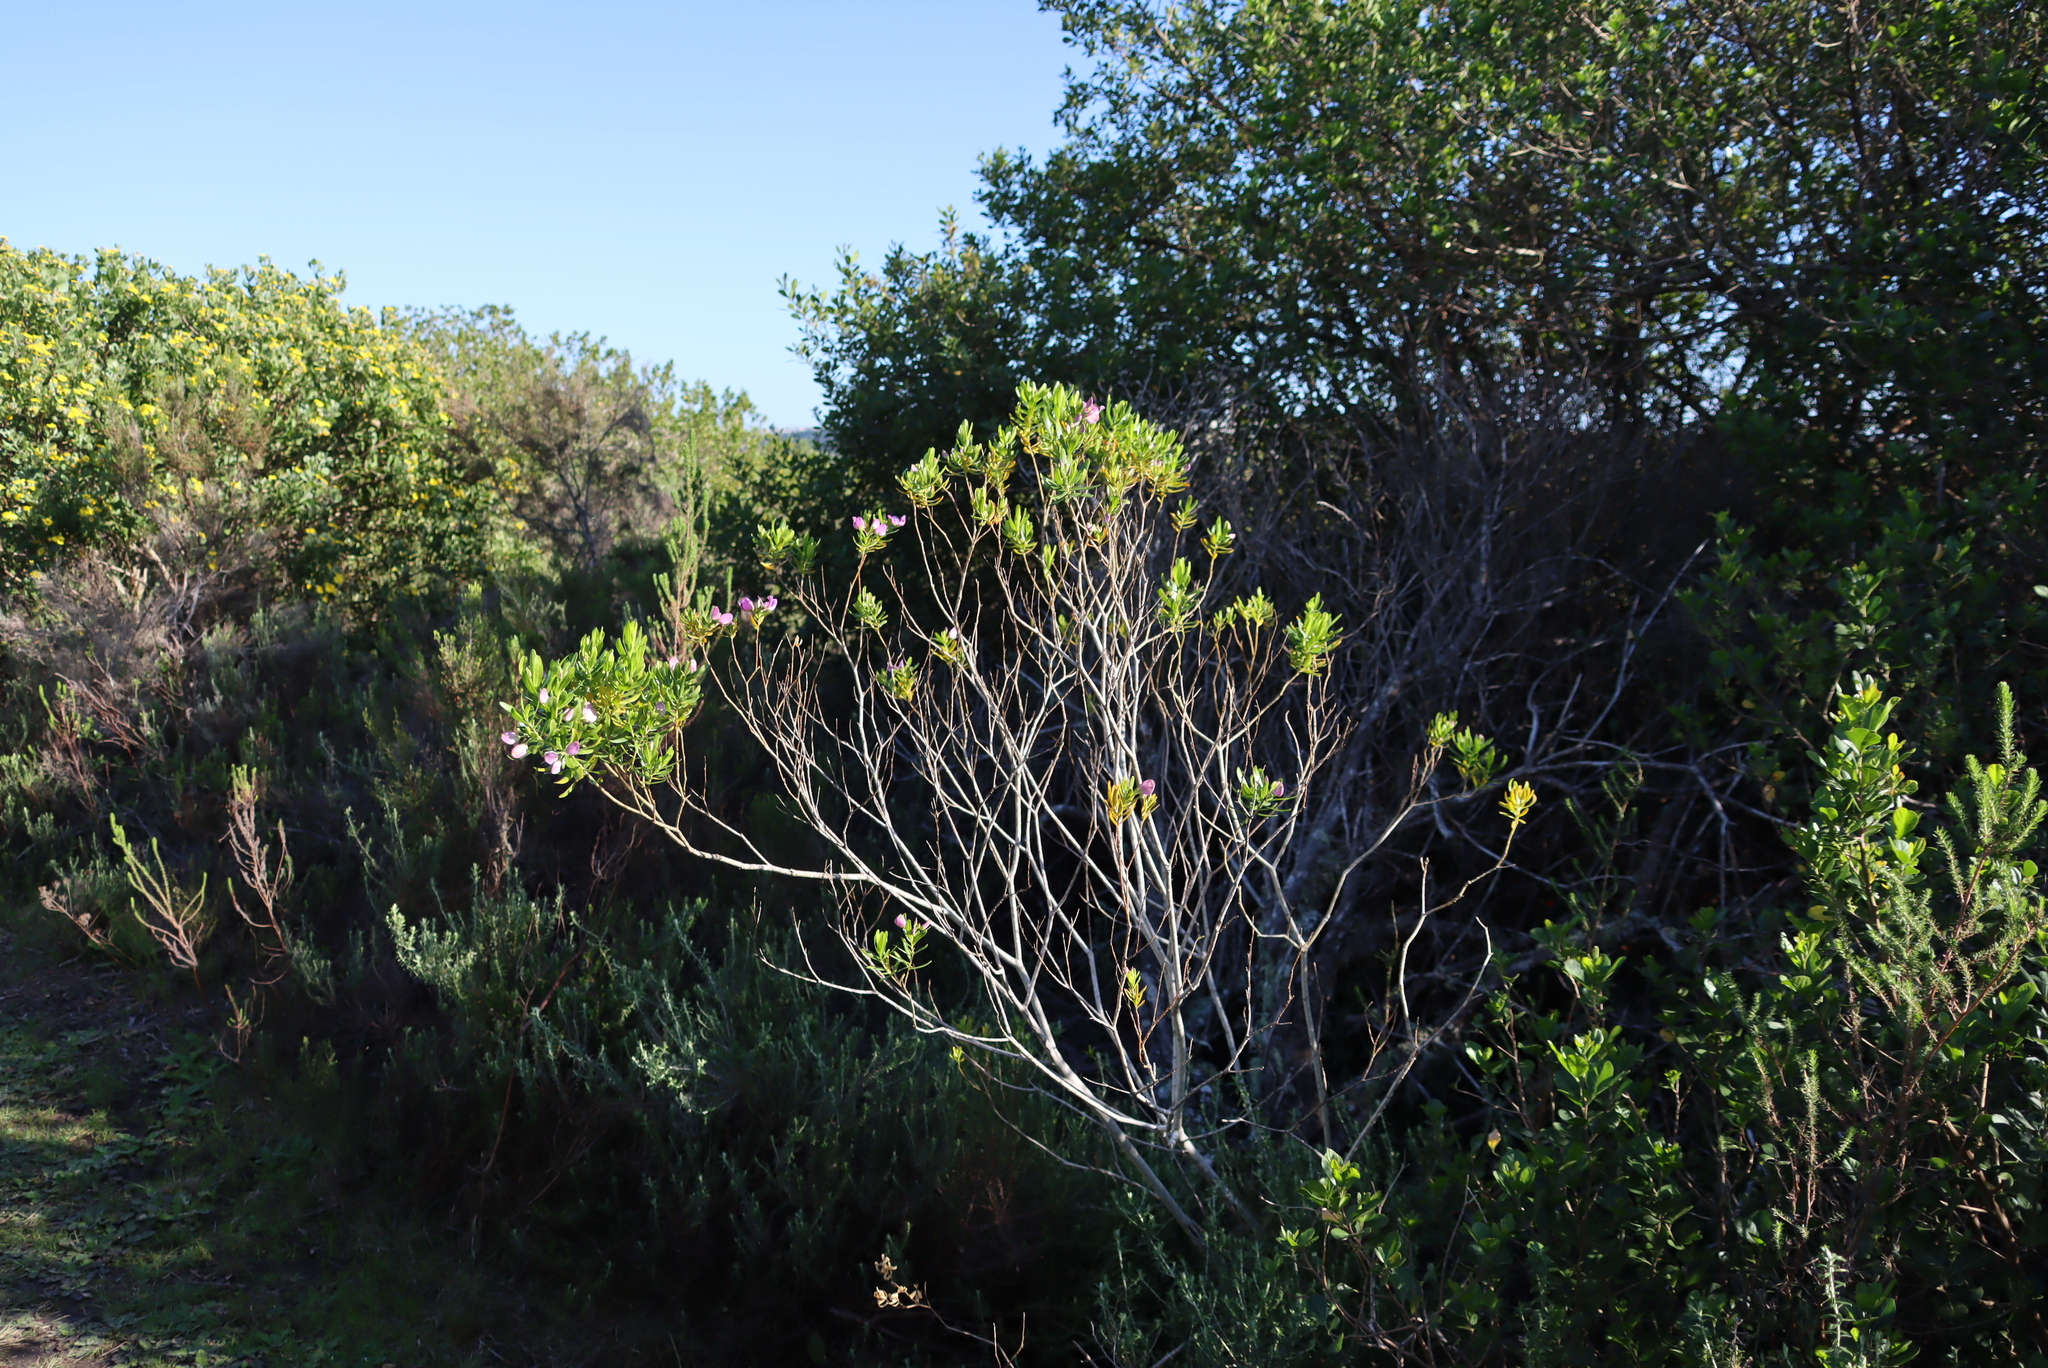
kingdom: Plantae
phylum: Tracheophyta
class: Magnoliopsida
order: Fabales
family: Polygalaceae
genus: Polygala
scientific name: Polygala myrtifolia
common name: Myrtle-leaf milkwort
